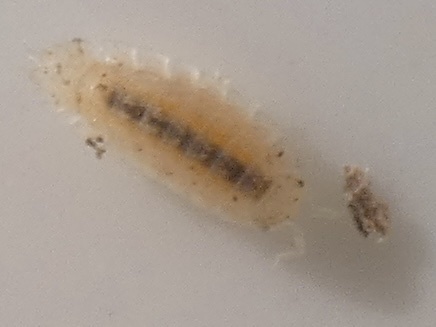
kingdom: Animalia
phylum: Arthropoda
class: Malacostraca
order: Isopoda
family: Trichoniscidae
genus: Haplophthalmus
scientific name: Haplophthalmus
